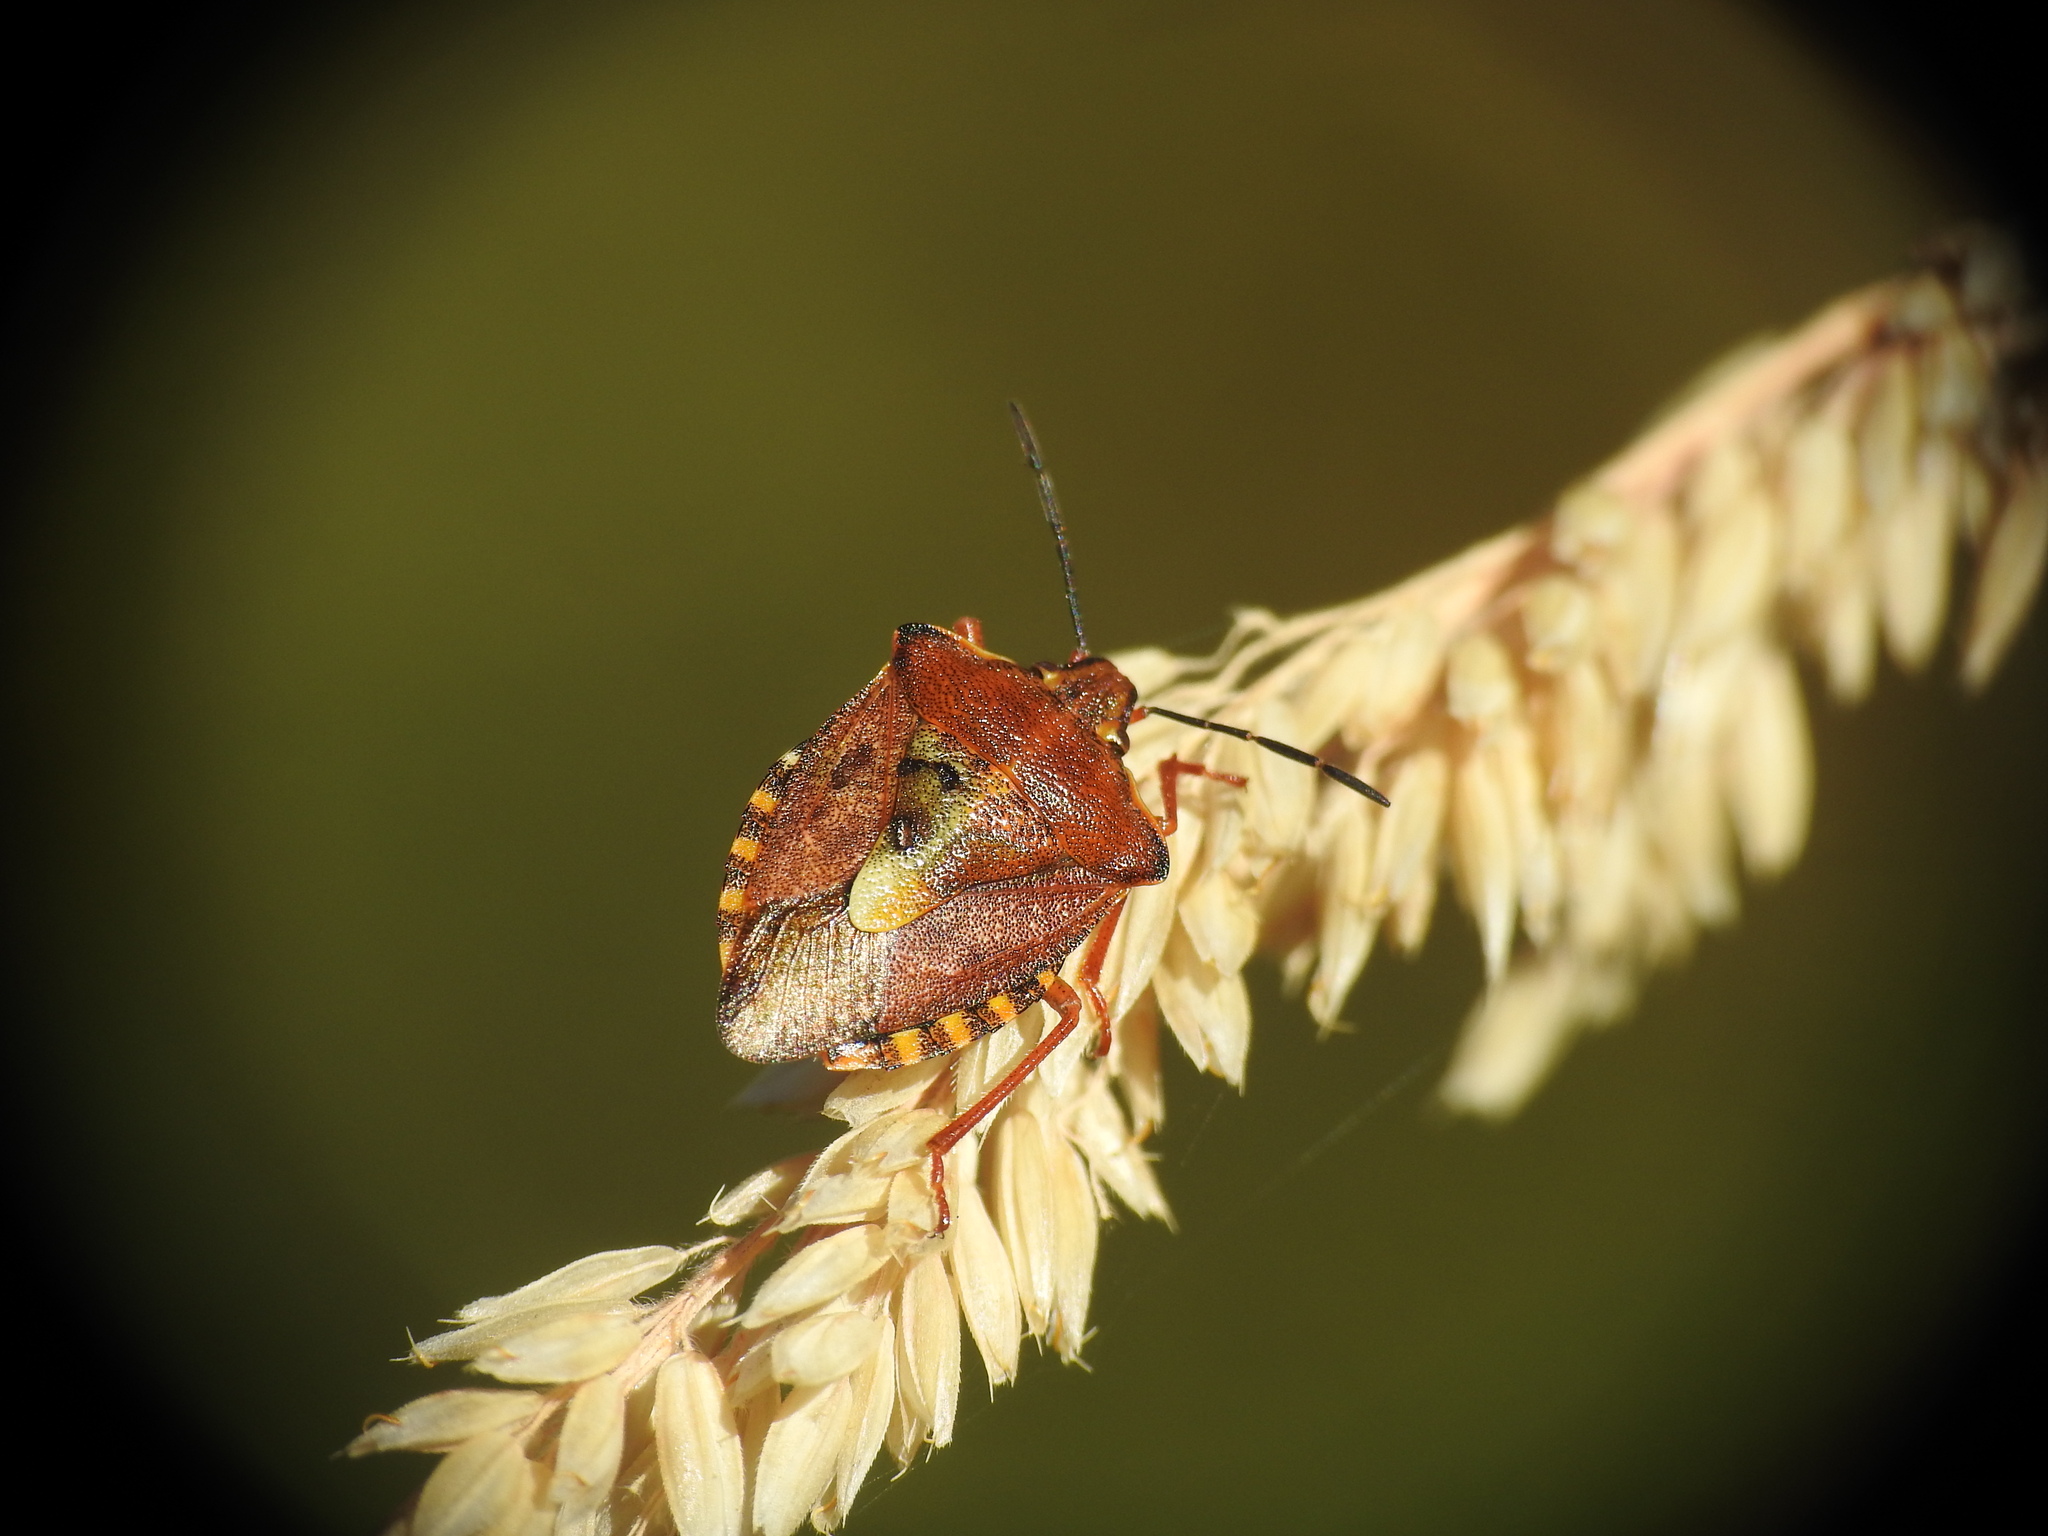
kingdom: Animalia
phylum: Arthropoda
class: Insecta
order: Hemiptera
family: Pentatomidae
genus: Carpocoris
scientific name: Carpocoris purpureipennis
